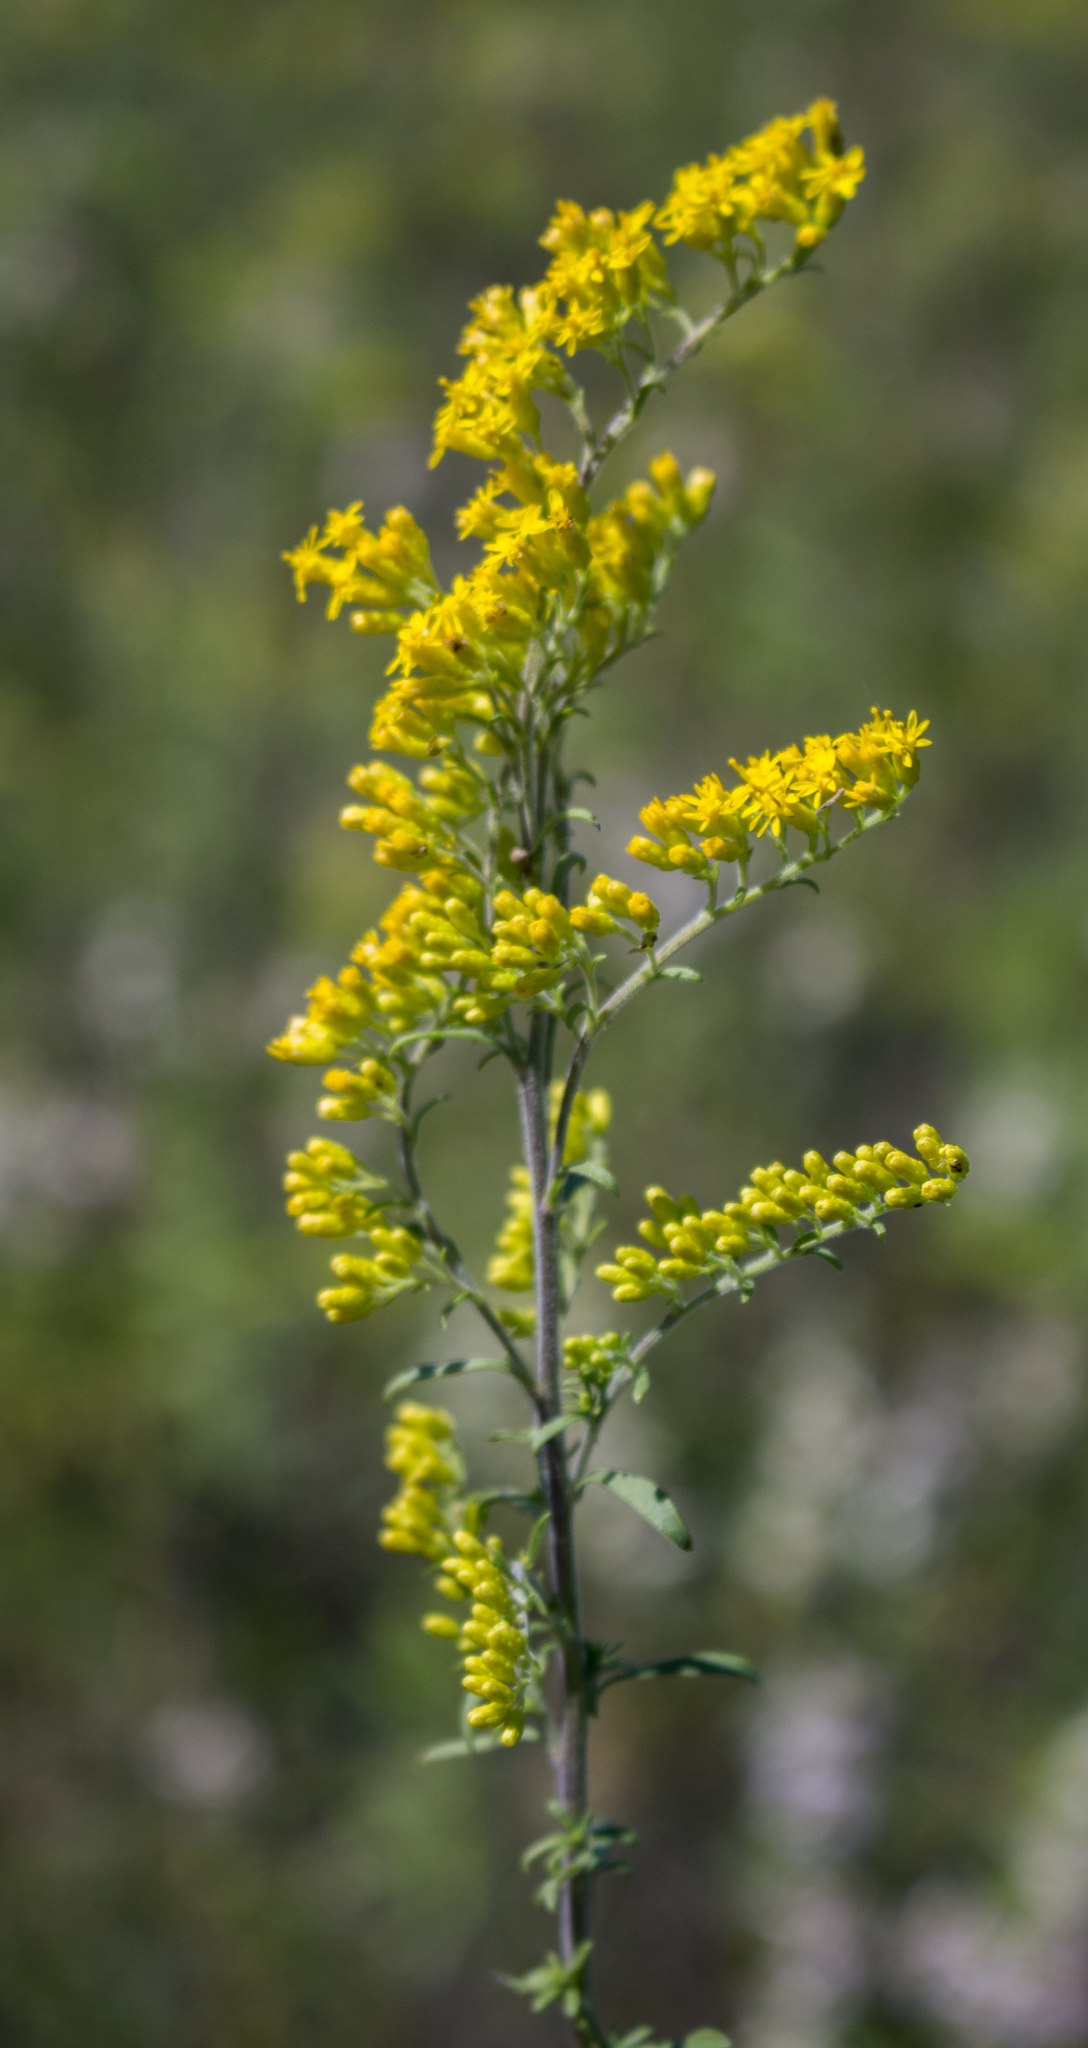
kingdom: Plantae
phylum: Tracheophyta
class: Magnoliopsida
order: Asterales
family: Asteraceae
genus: Solidago
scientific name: Solidago nemoralis
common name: Grey goldenrod
